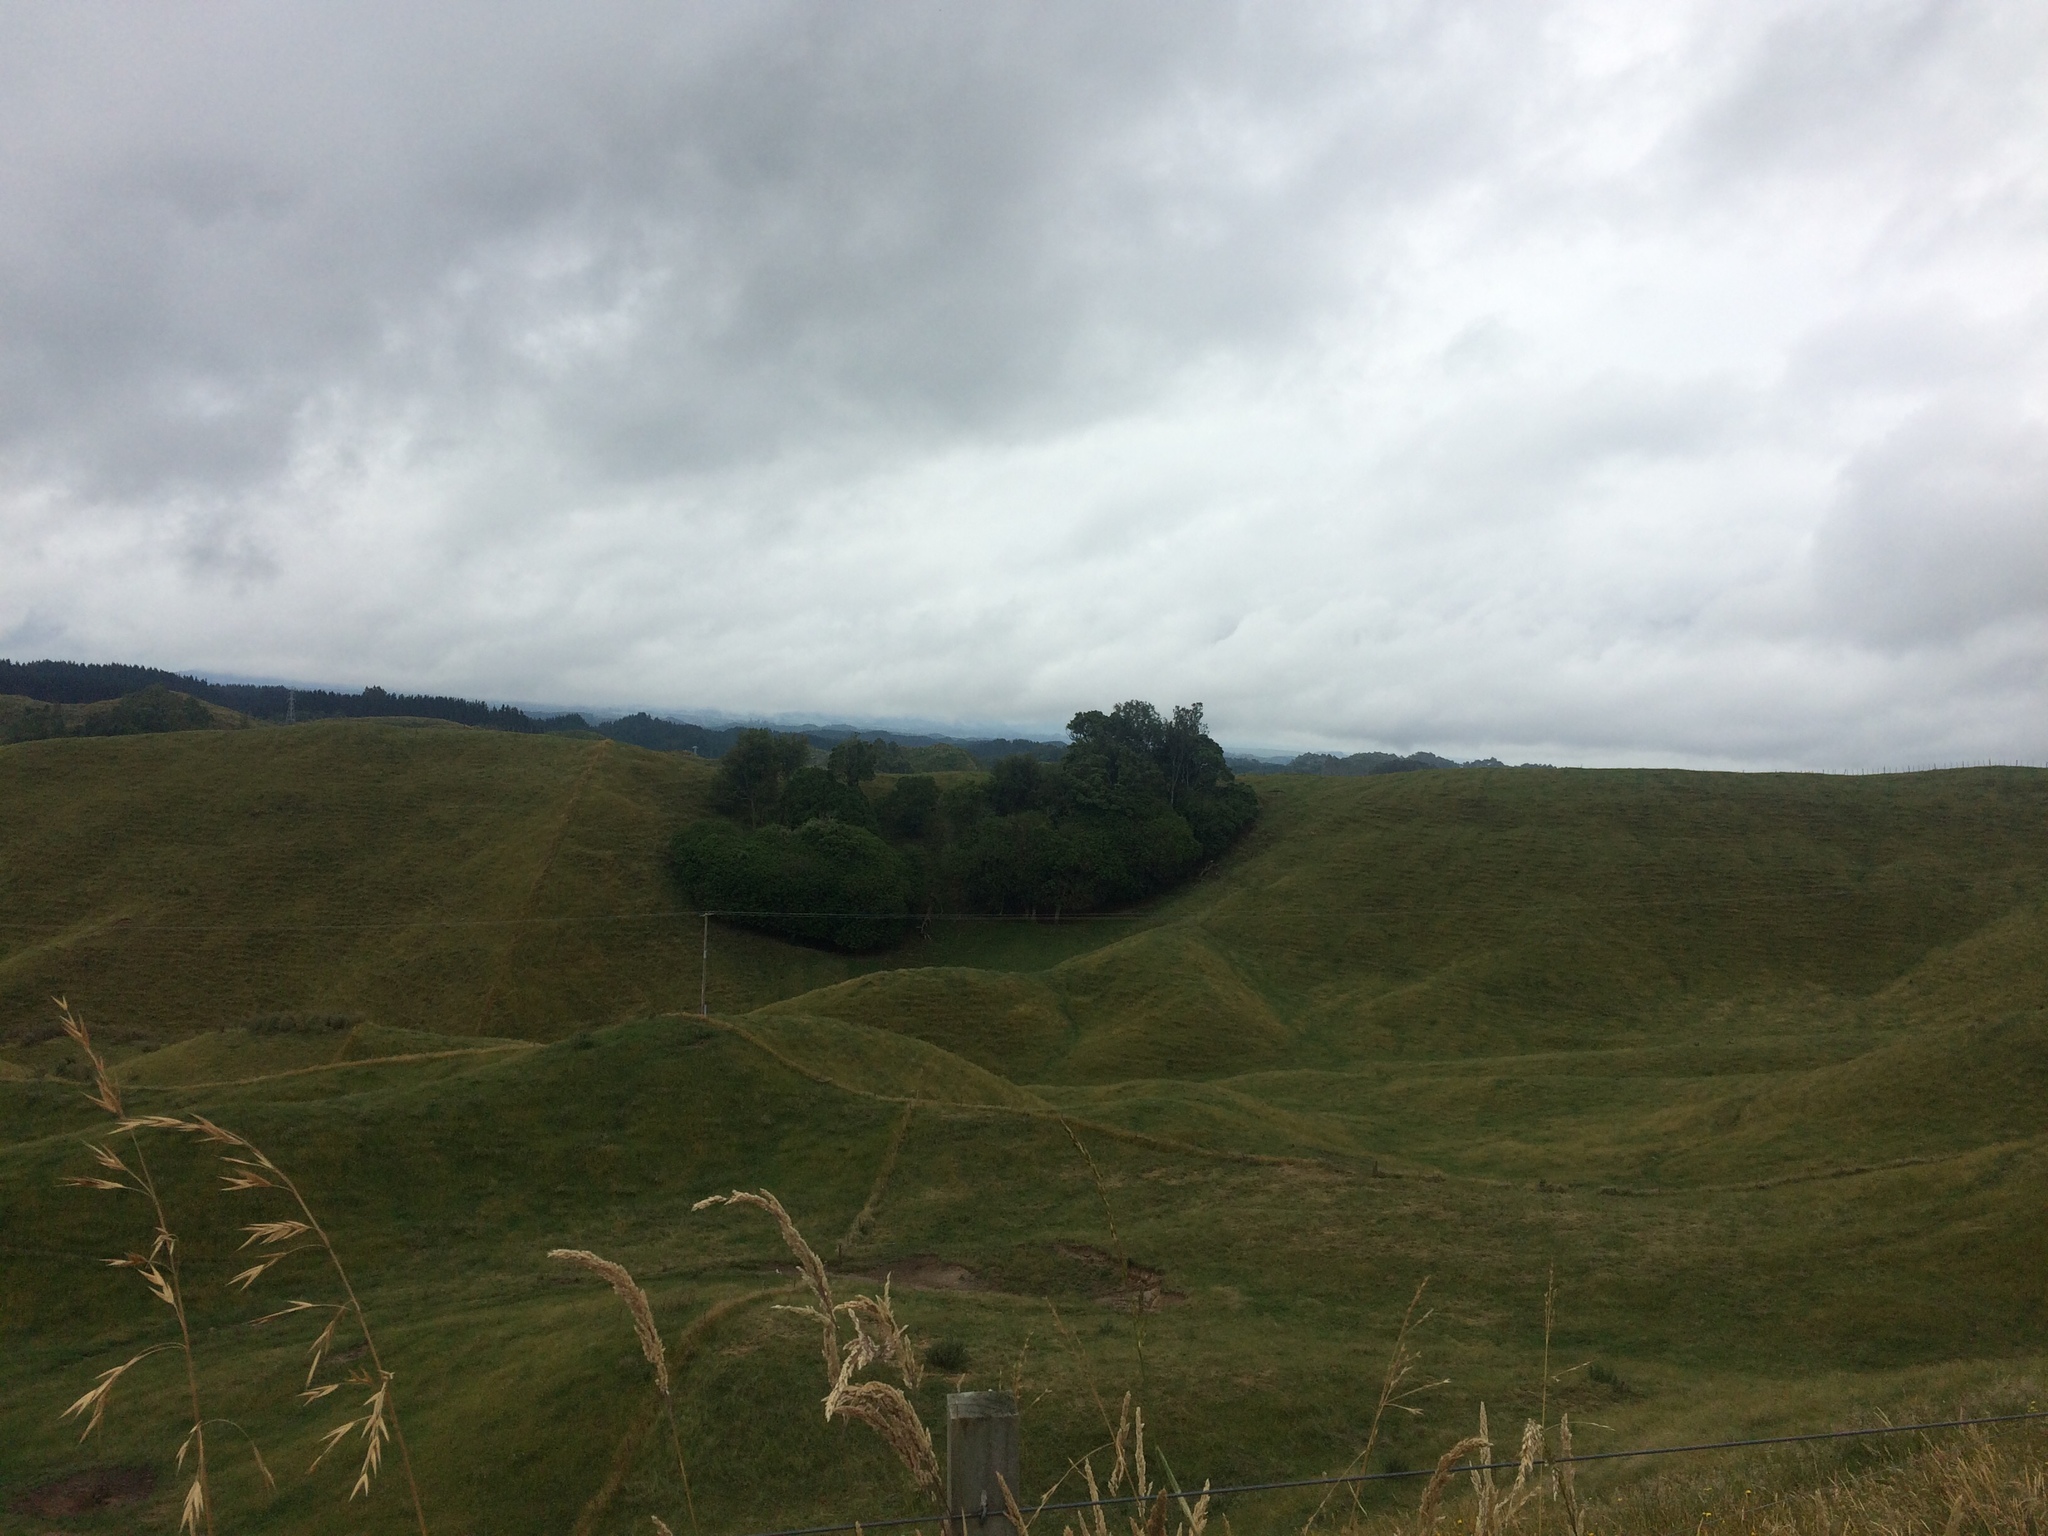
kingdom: Plantae
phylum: Tracheophyta
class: Magnoliopsida
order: Sapindales
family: Meliaceae
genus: Didymocheton
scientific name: Didymocheton spectabilis
